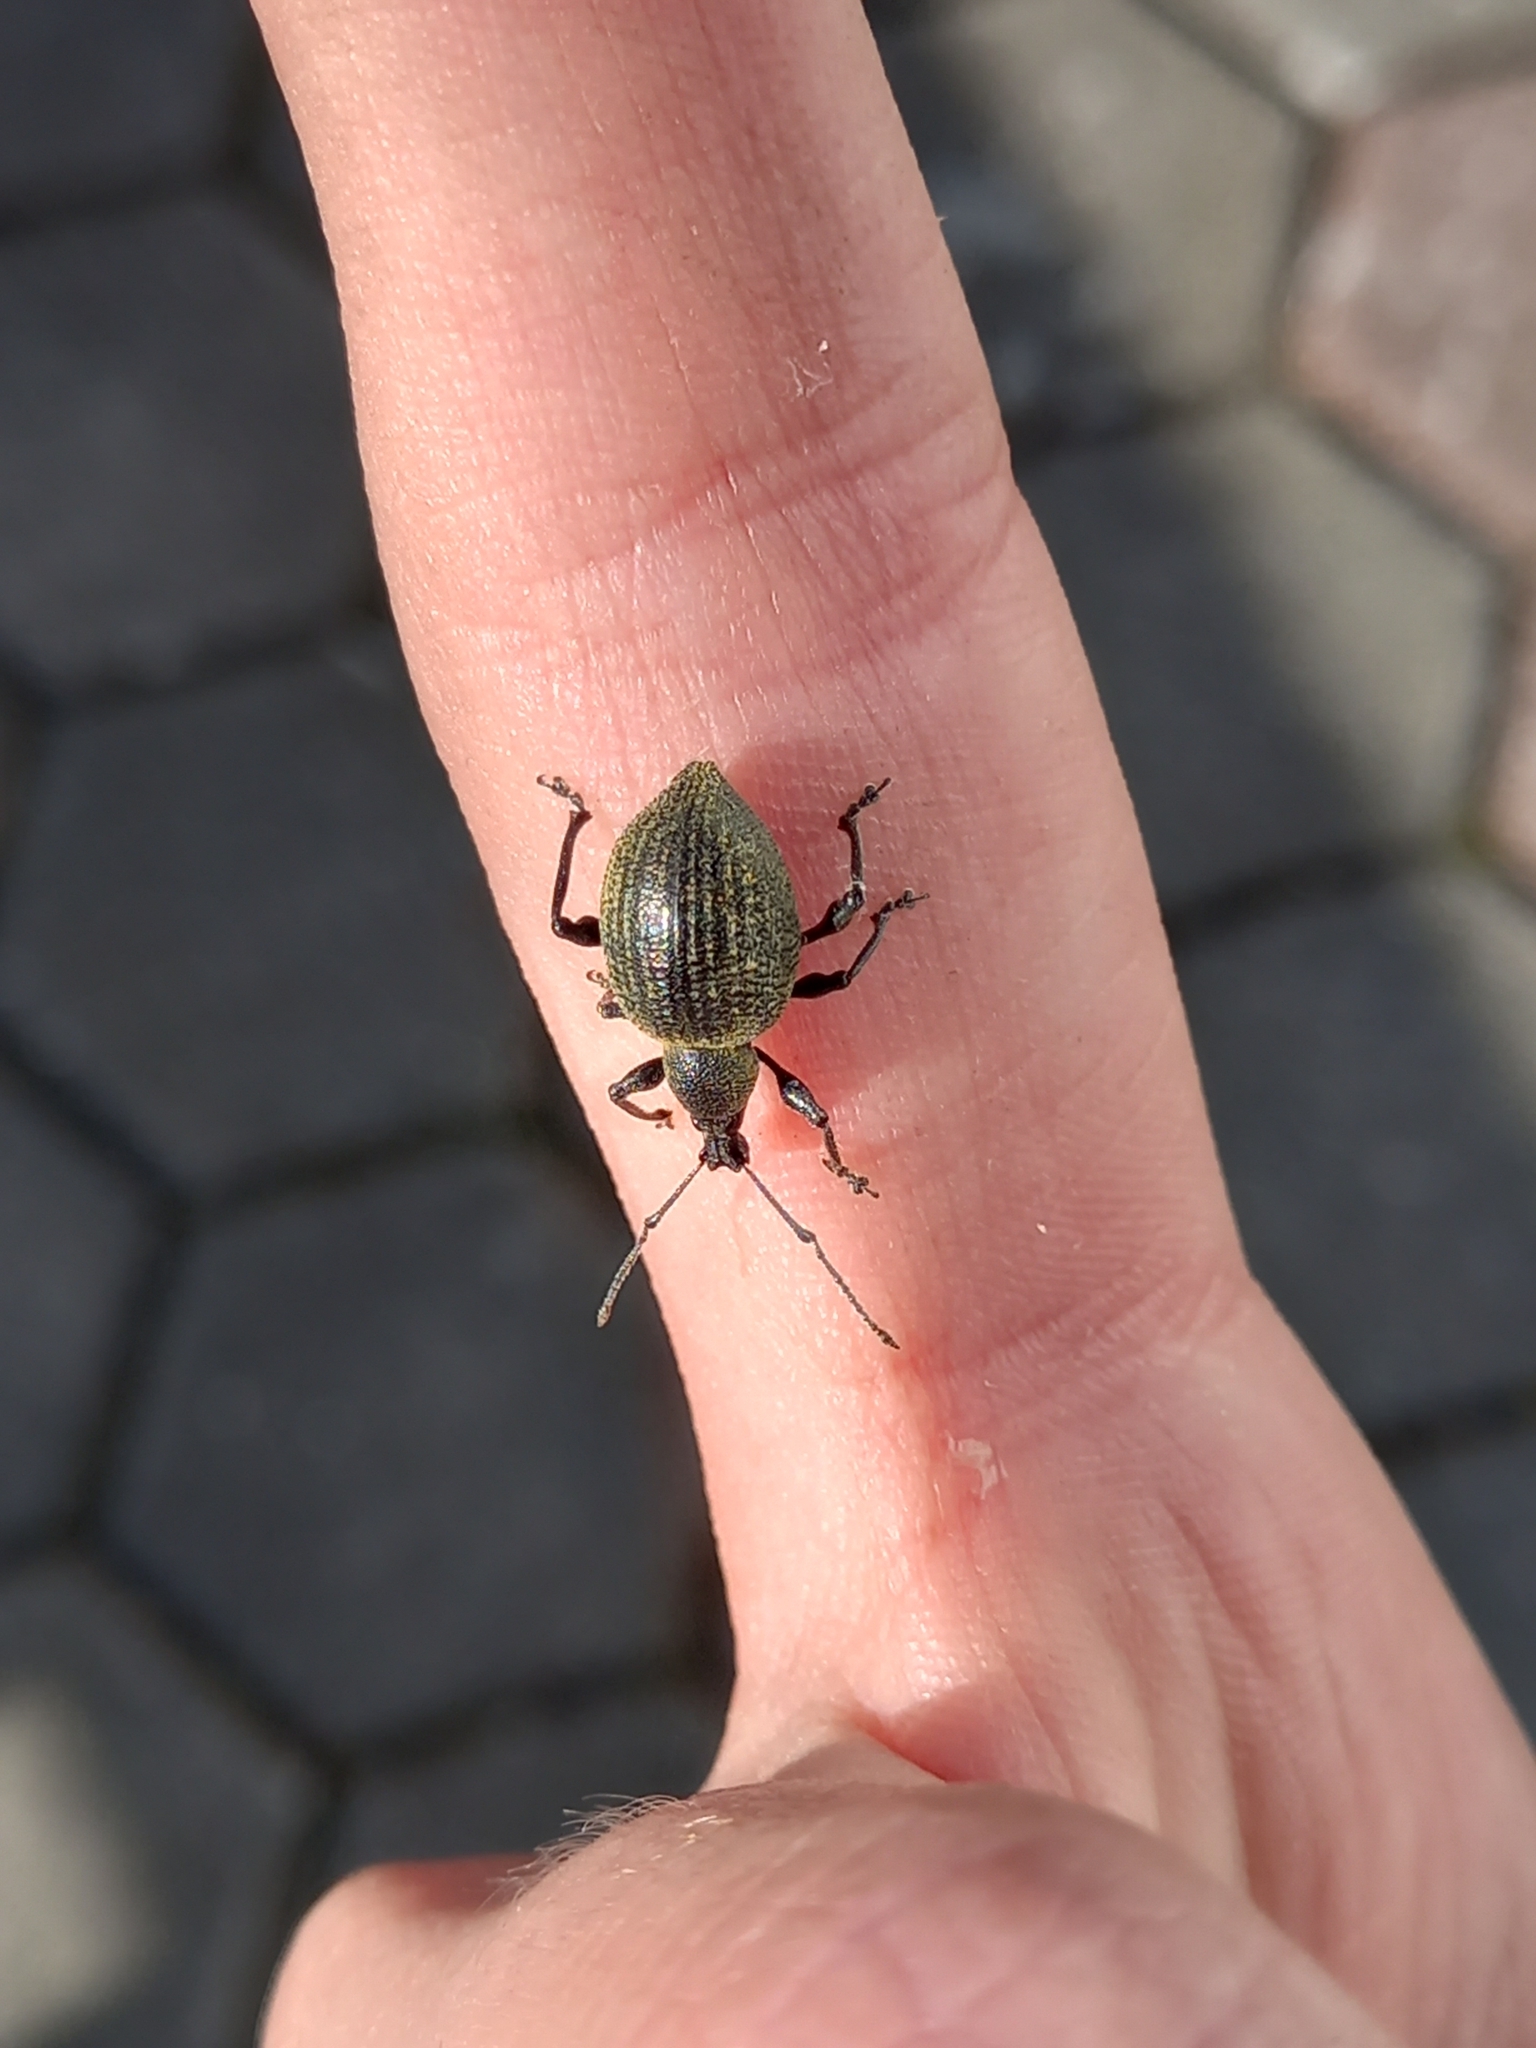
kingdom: Animalia
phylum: Arthropoda
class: Insecta
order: Coleoptera
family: Curculionidae
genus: Otiorhynchus
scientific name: Otiorhynchus armadillo
